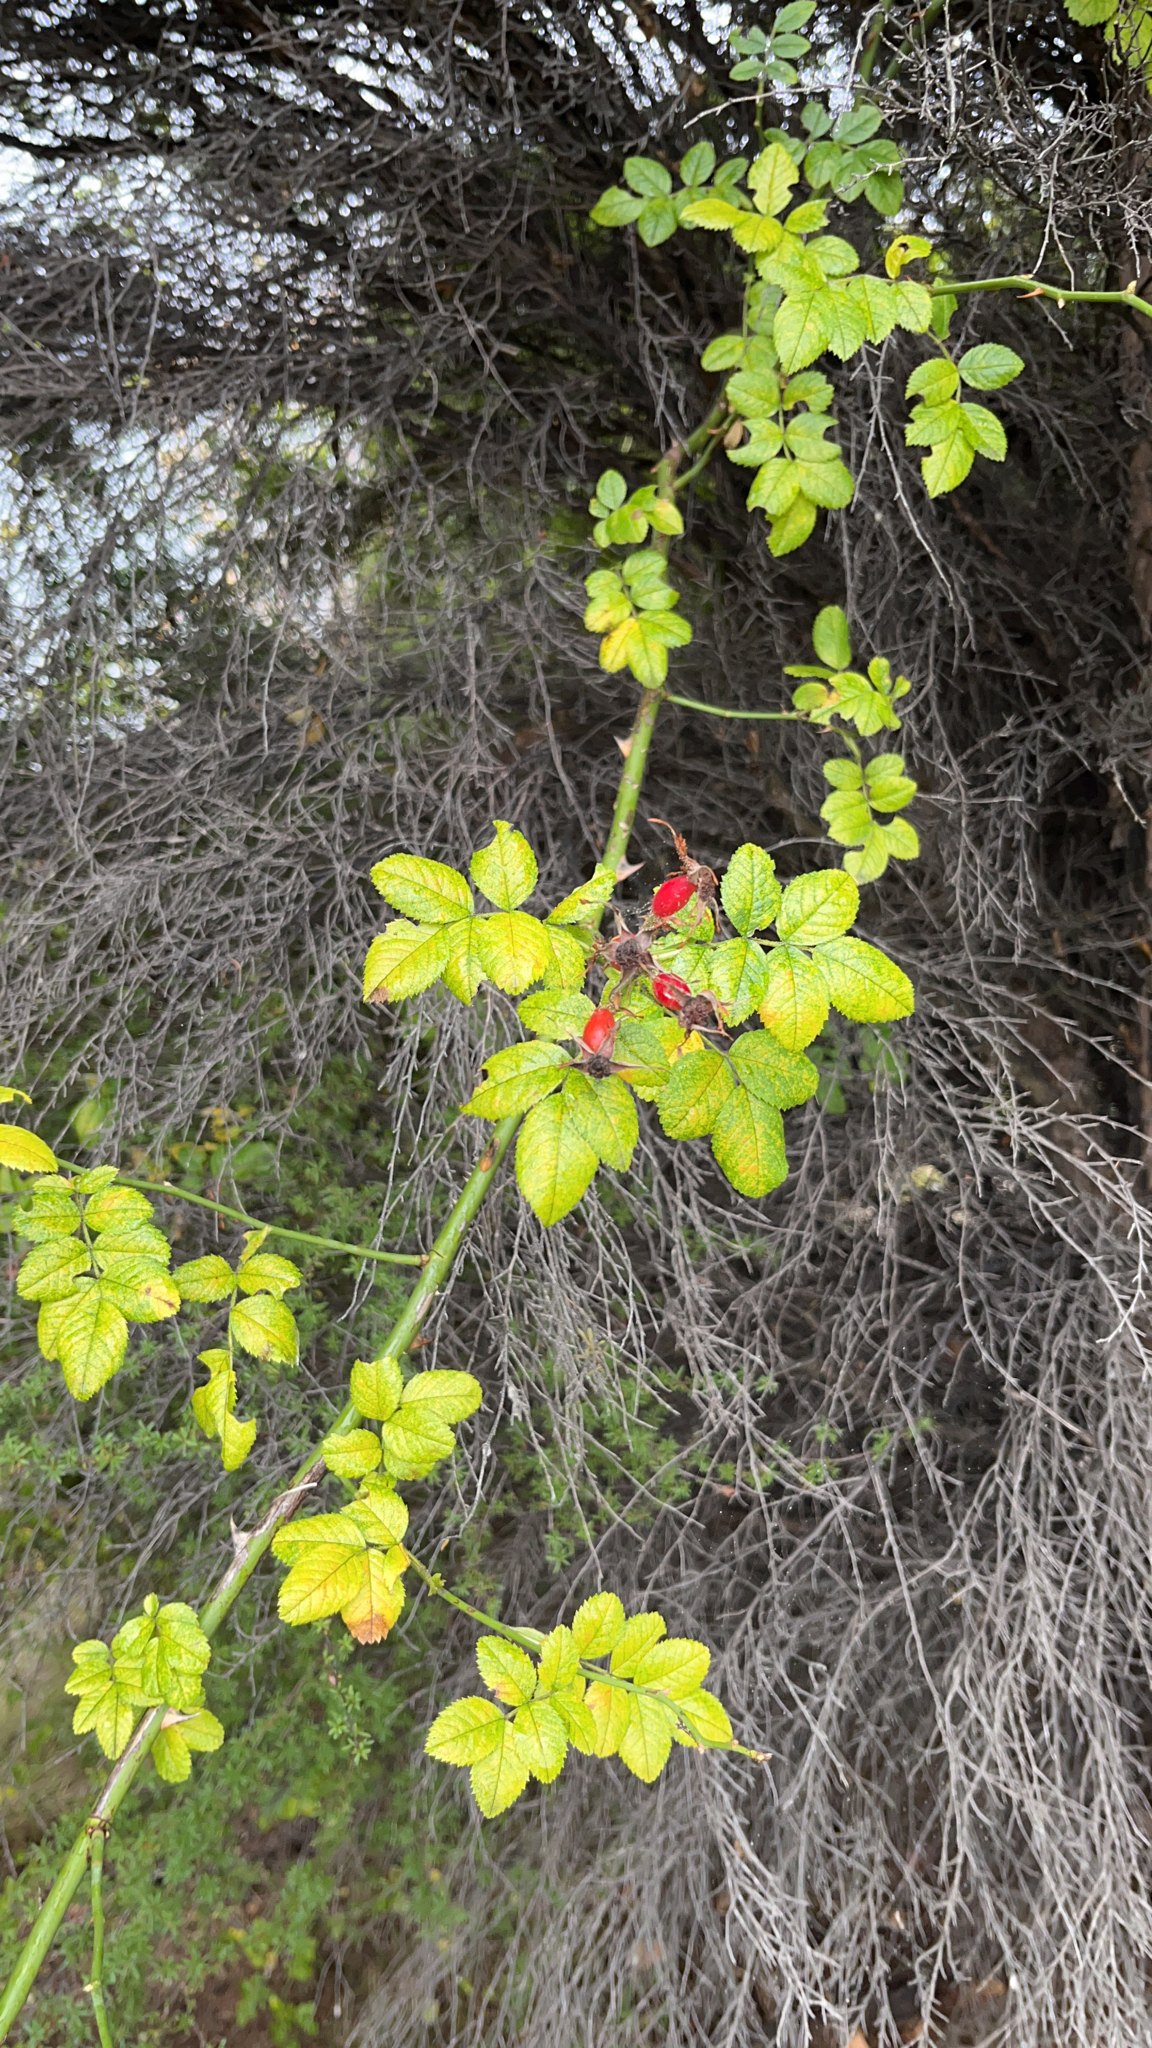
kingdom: Plantae
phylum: Tracheophyta
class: Magnoliopsida
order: Rosales
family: Rosaceae
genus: Rosa
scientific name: Rosa rubiginosa
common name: Sweet-briar
